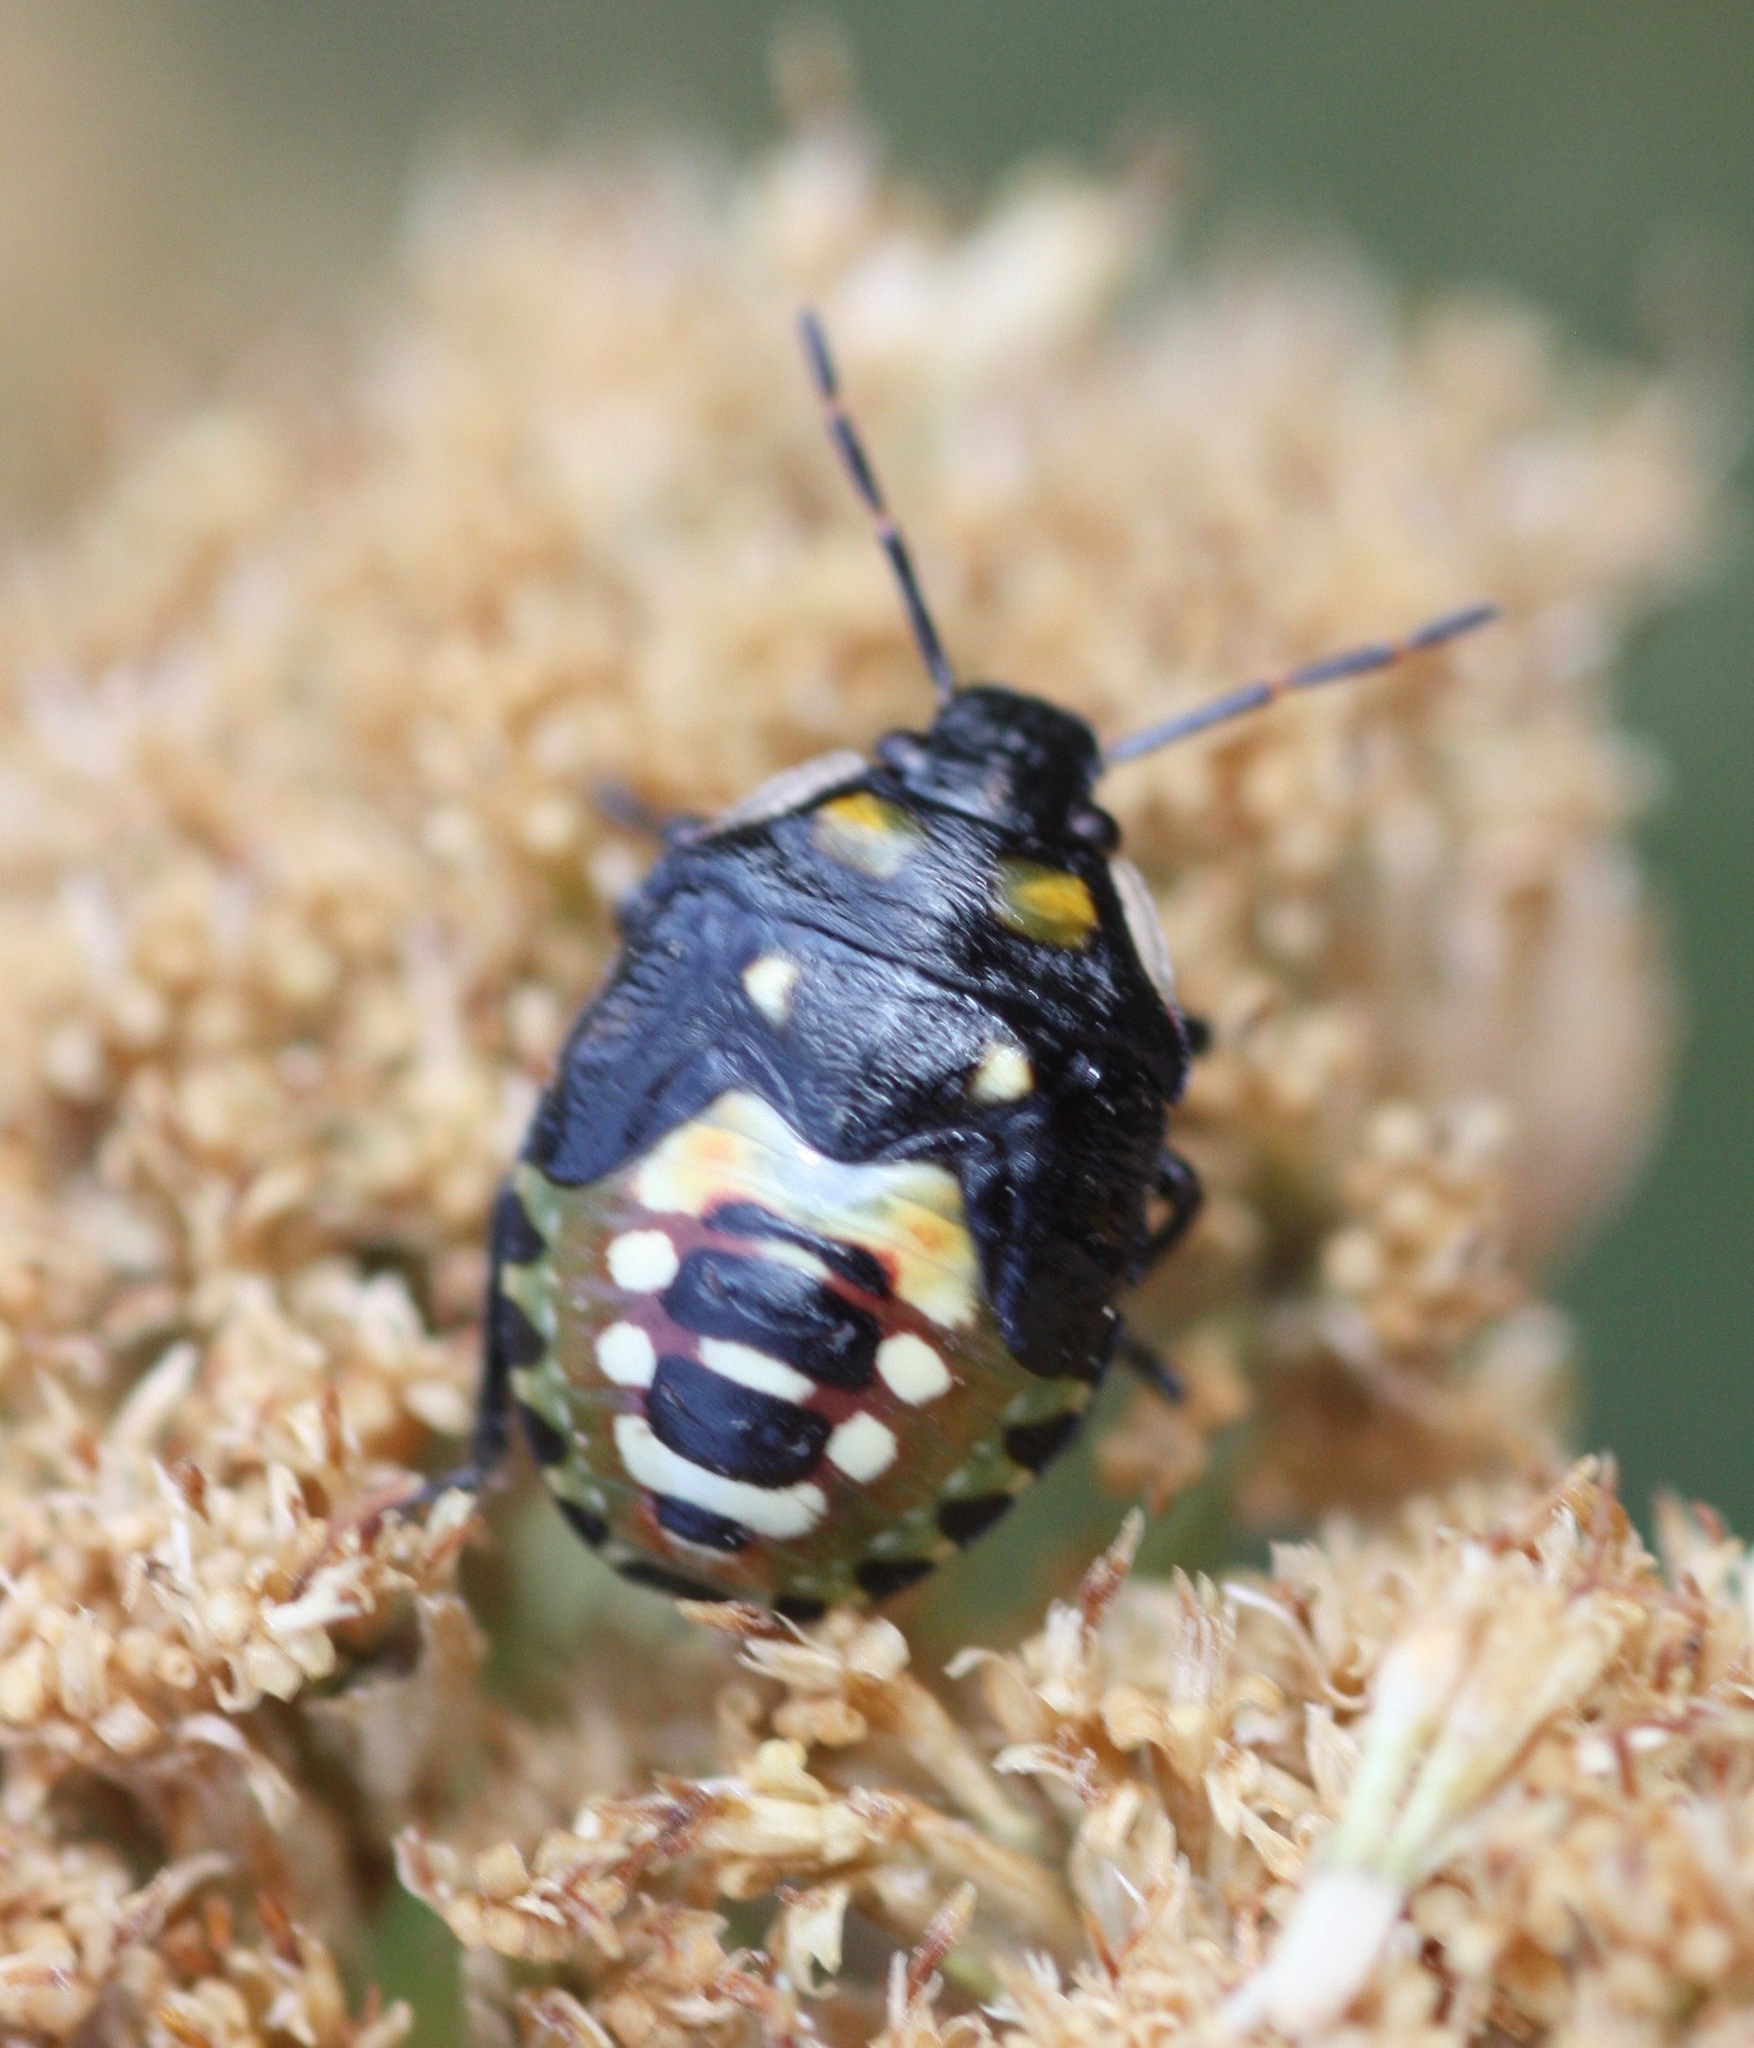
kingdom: Animalia
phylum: Arthropoda
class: Insecta
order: Hemiptera
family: Pentatomidae
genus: Tylospilus
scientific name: Tylospilus acutissimus
